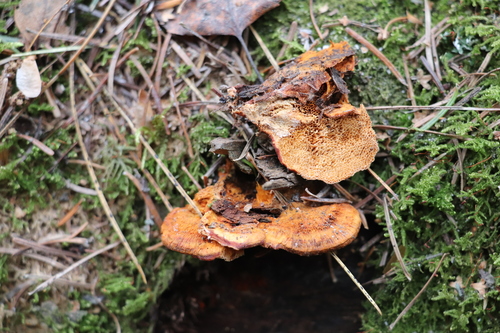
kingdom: Fungi
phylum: Basidiomycota
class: Agaricomycetes
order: Polyporales
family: Pycnoporellaceae
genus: Pycnoporellus
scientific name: Pycnoporellus fulgens
